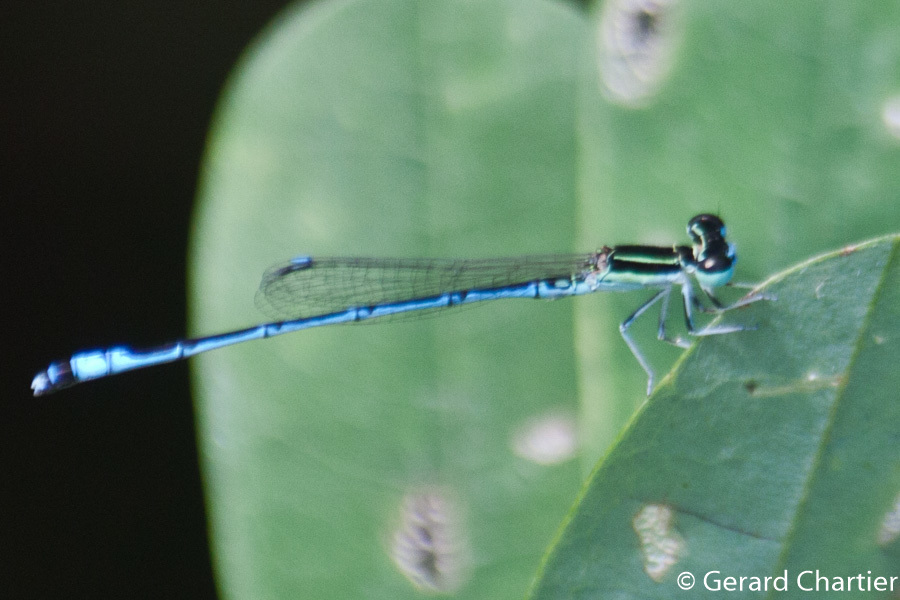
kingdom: Animalia
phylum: Arthropoda
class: Insecta
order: Odonata
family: Coenagrionidae
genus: Agriocnemis
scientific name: Agriocnemis nana
